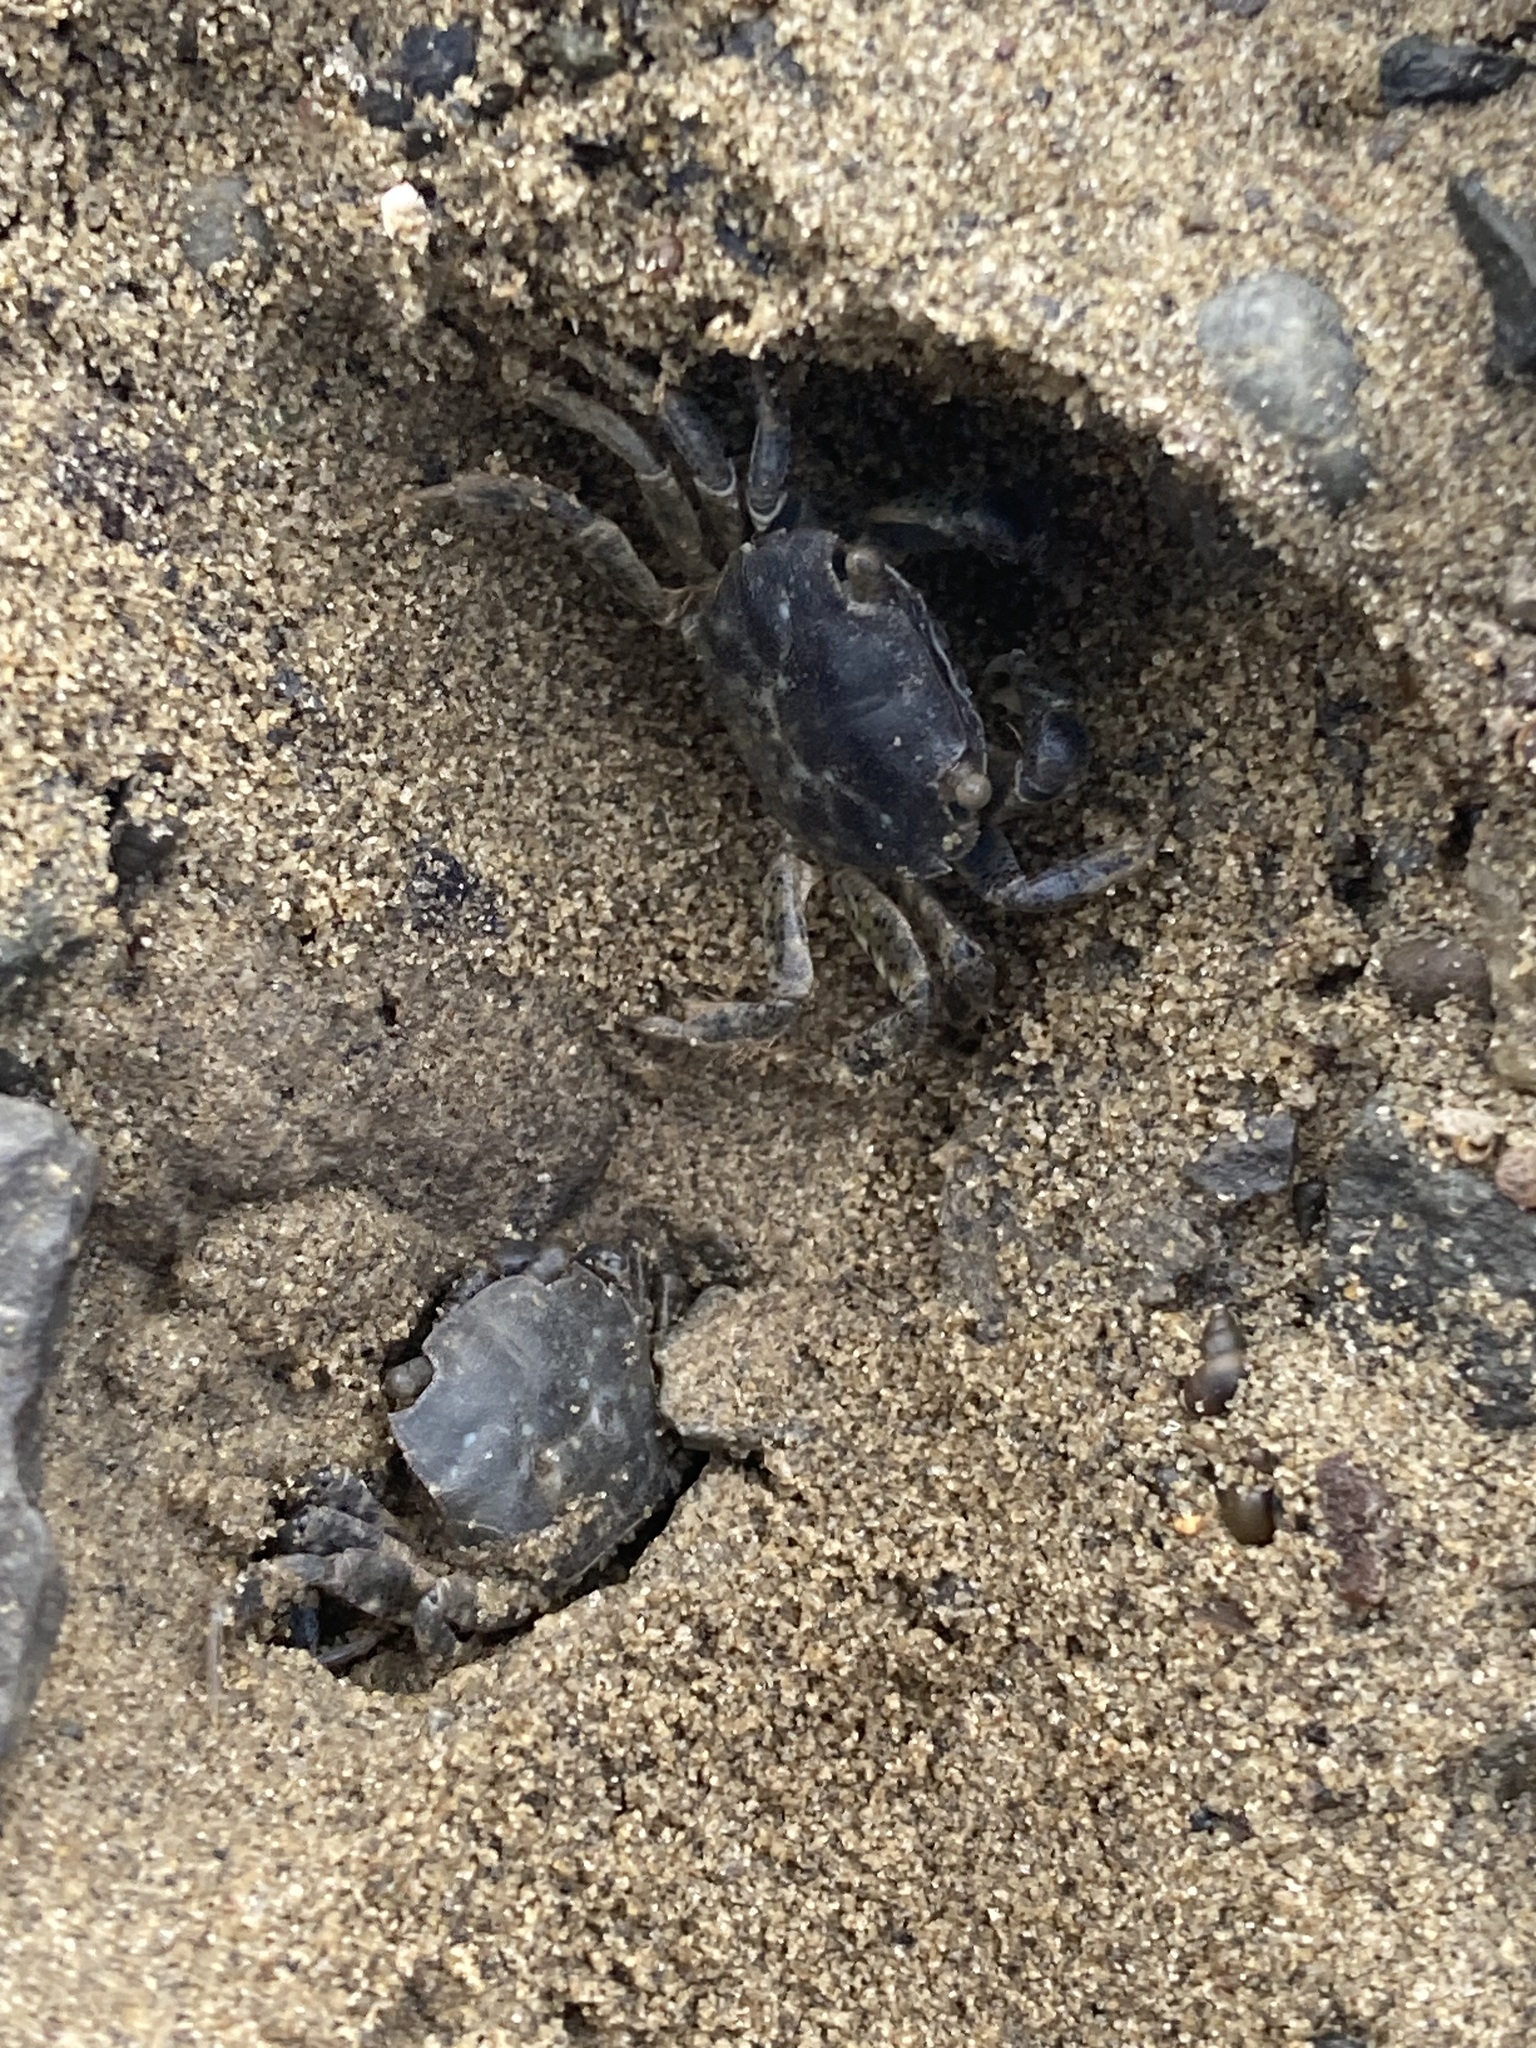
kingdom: Animalia
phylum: Arthropoda
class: Malacostraca
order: Decapoda
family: Varunidae
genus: Hemigrapsus
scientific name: Hemigrapsus crenulatus
